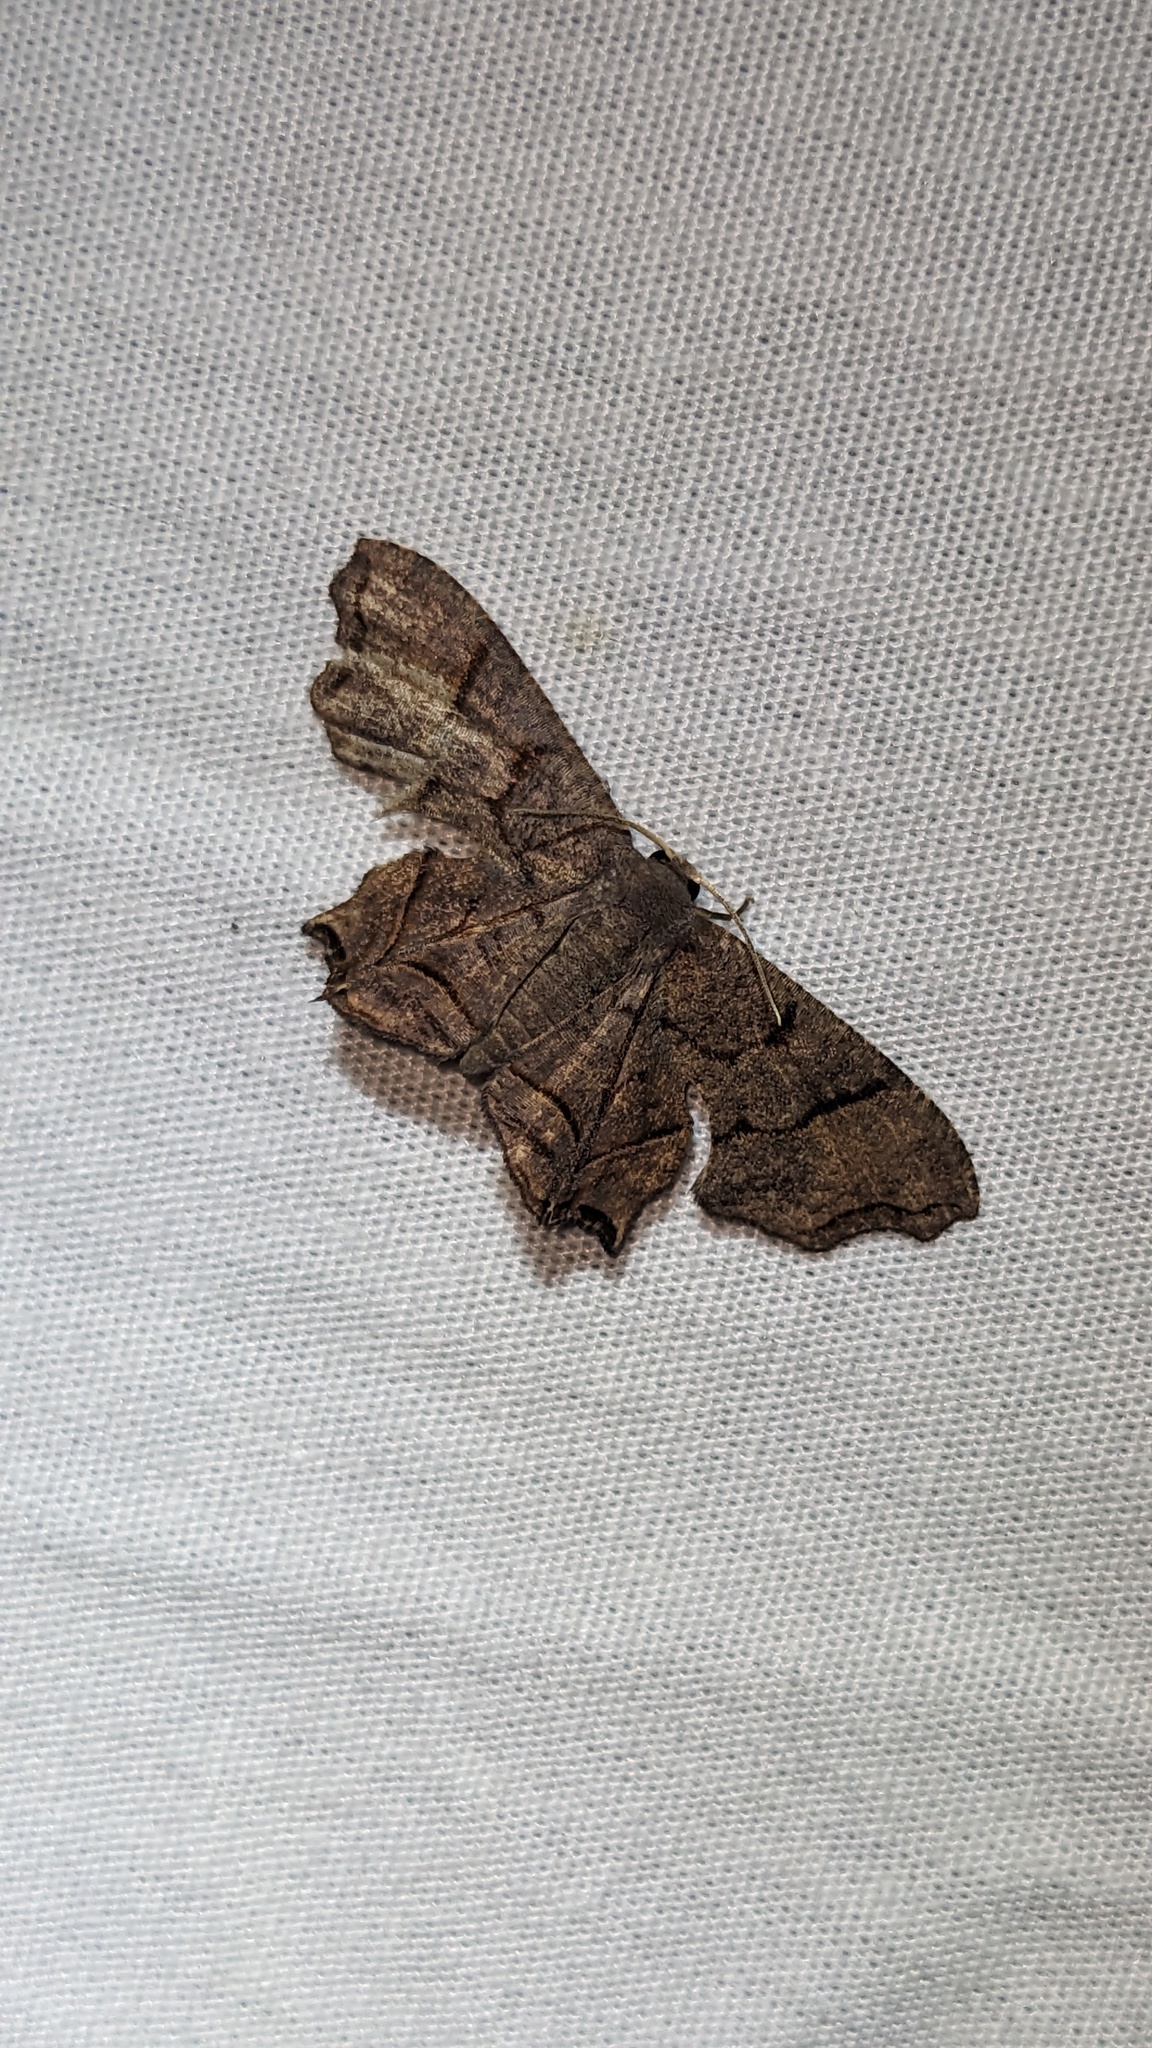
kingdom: Animalia
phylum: Arthropoda
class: Insecta
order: Lepidoptera
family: Uraniidae
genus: Dysaethria
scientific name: Dysaethria
